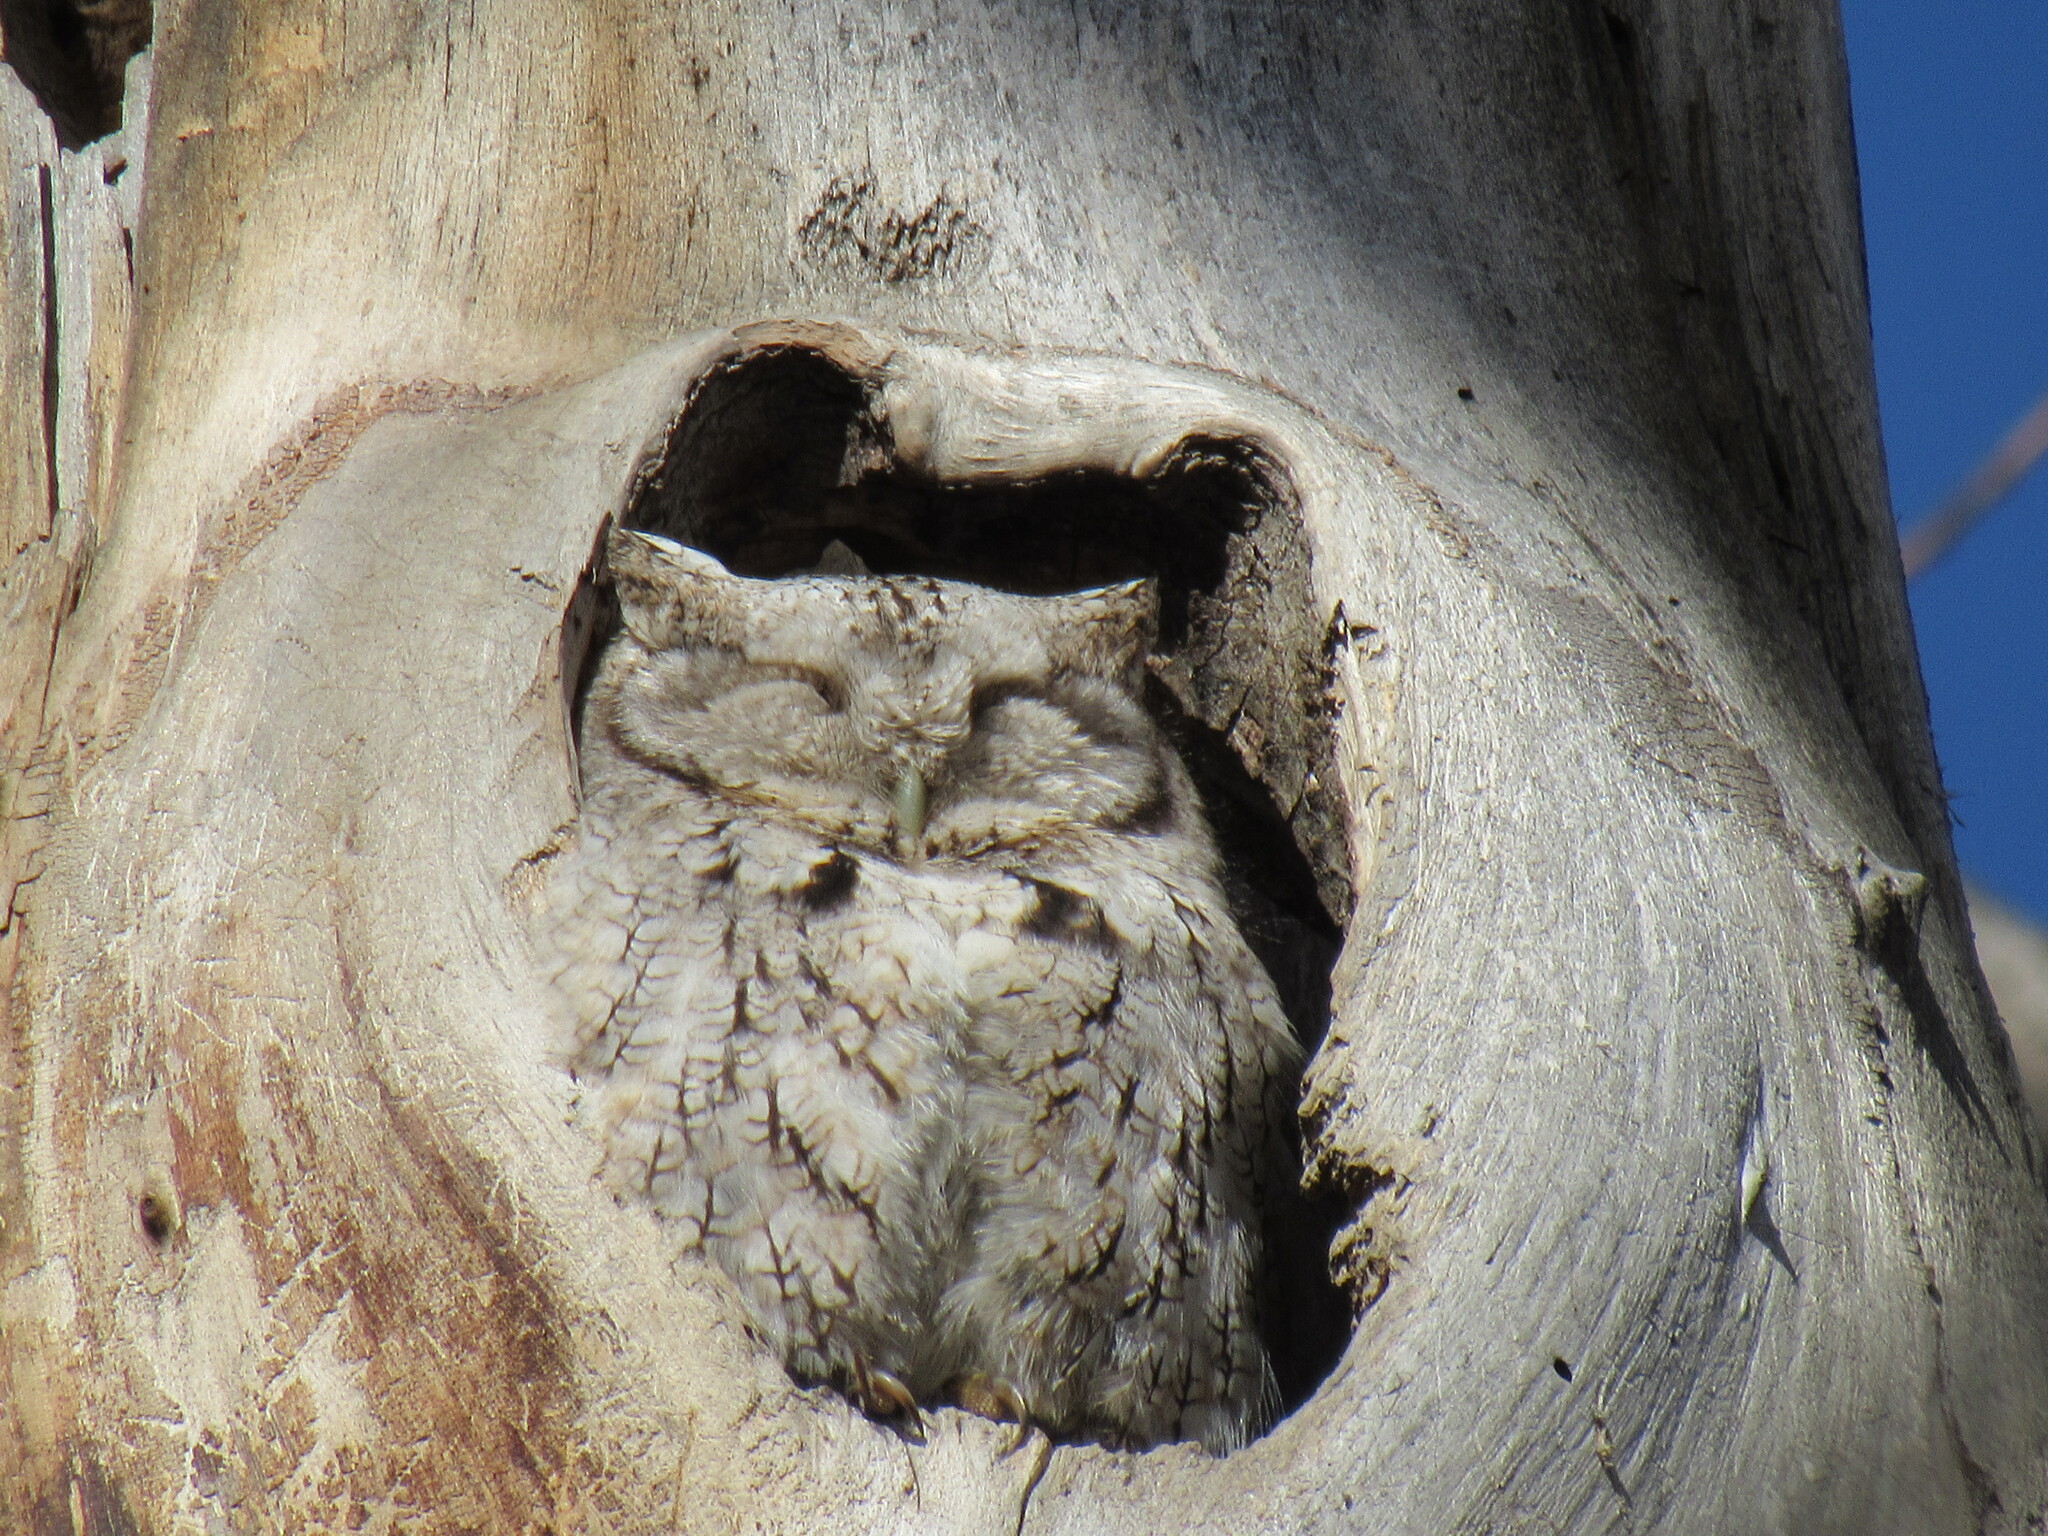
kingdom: Animalia
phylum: Chordata
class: Aves
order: Strigiformes
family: Strigidae
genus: Megascops
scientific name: Megascops asio
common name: Eastern screech-owl
